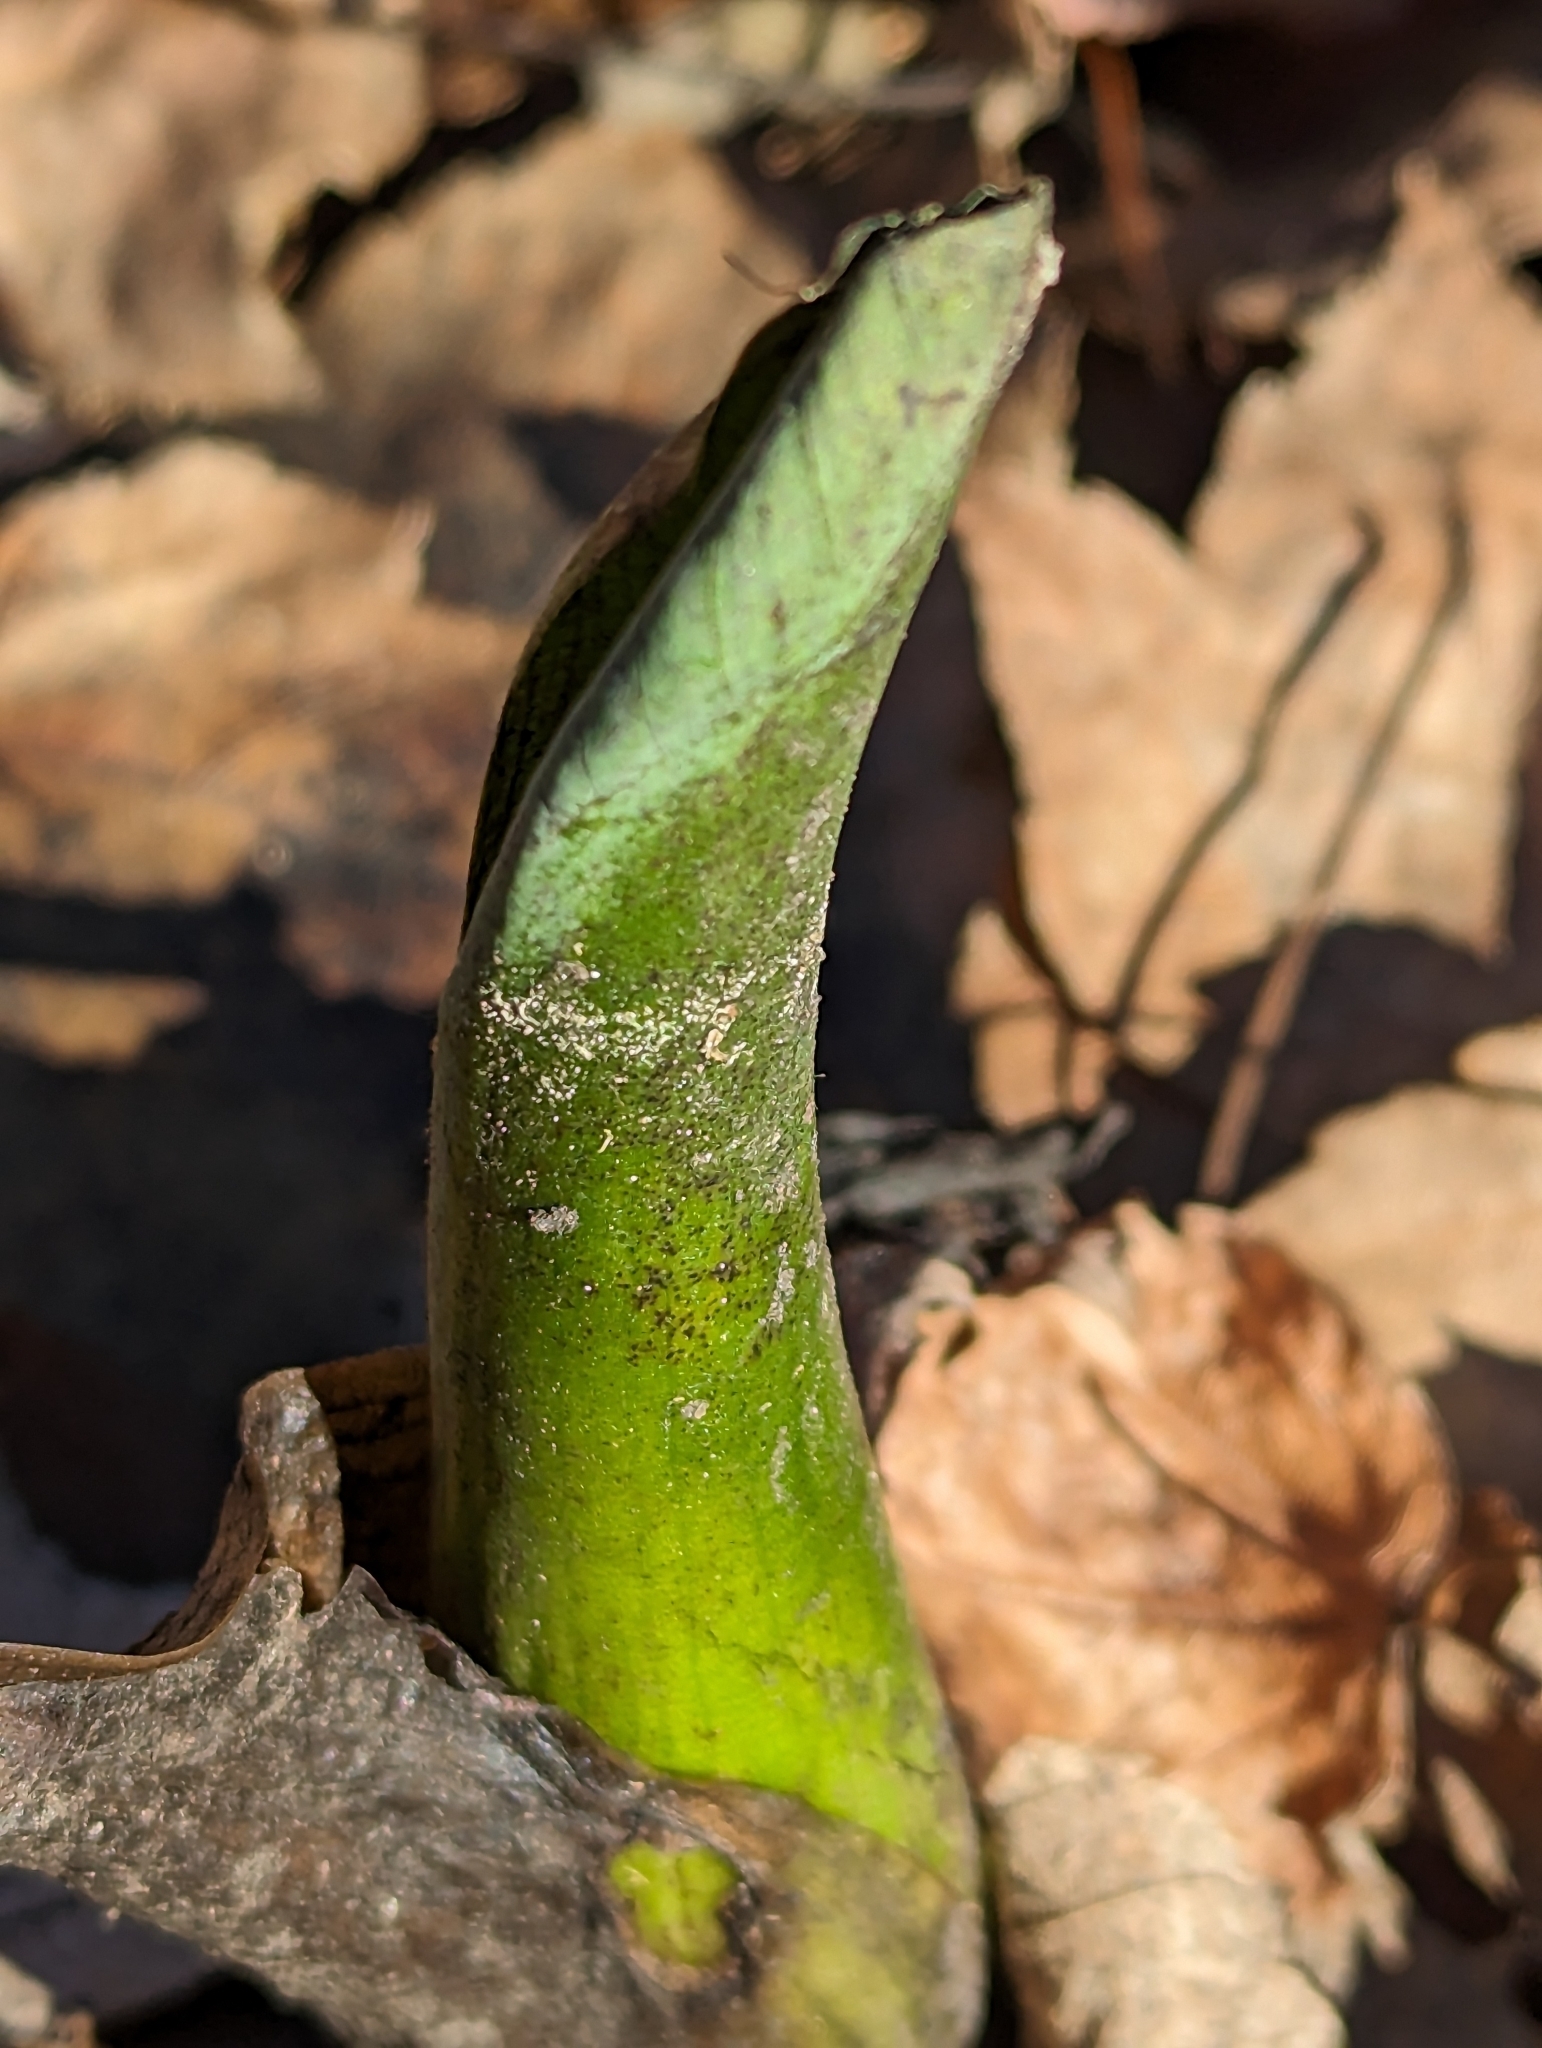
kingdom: Plantae
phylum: Tracheophyta
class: Liliopsida
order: Alismatales
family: Araceae
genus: Symplocarpus
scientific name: Symplocarpus foetidus
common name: Eastern skunk cabbage
